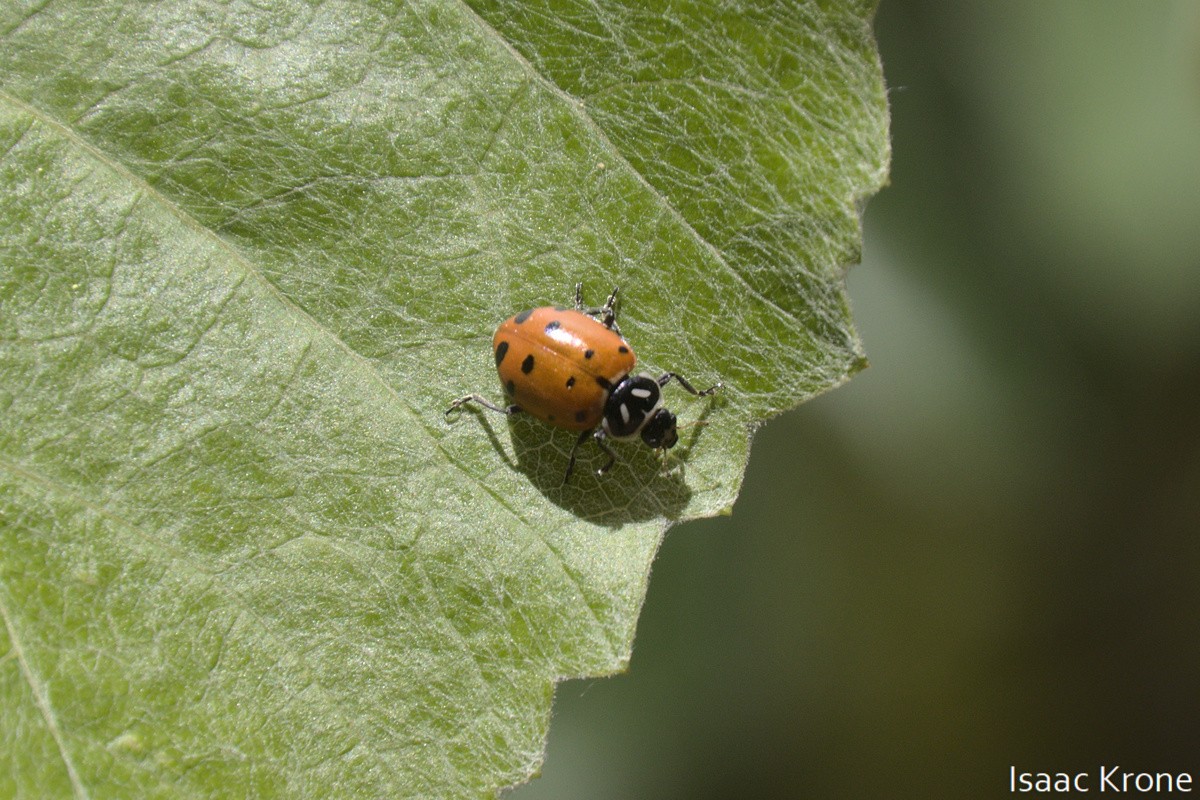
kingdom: Animalia
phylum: Arthropoda
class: Insecta
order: Coleoptera
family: Coccinellidae
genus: Hippodamia
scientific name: Hippodamia convergens
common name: Convergent lady beetle
